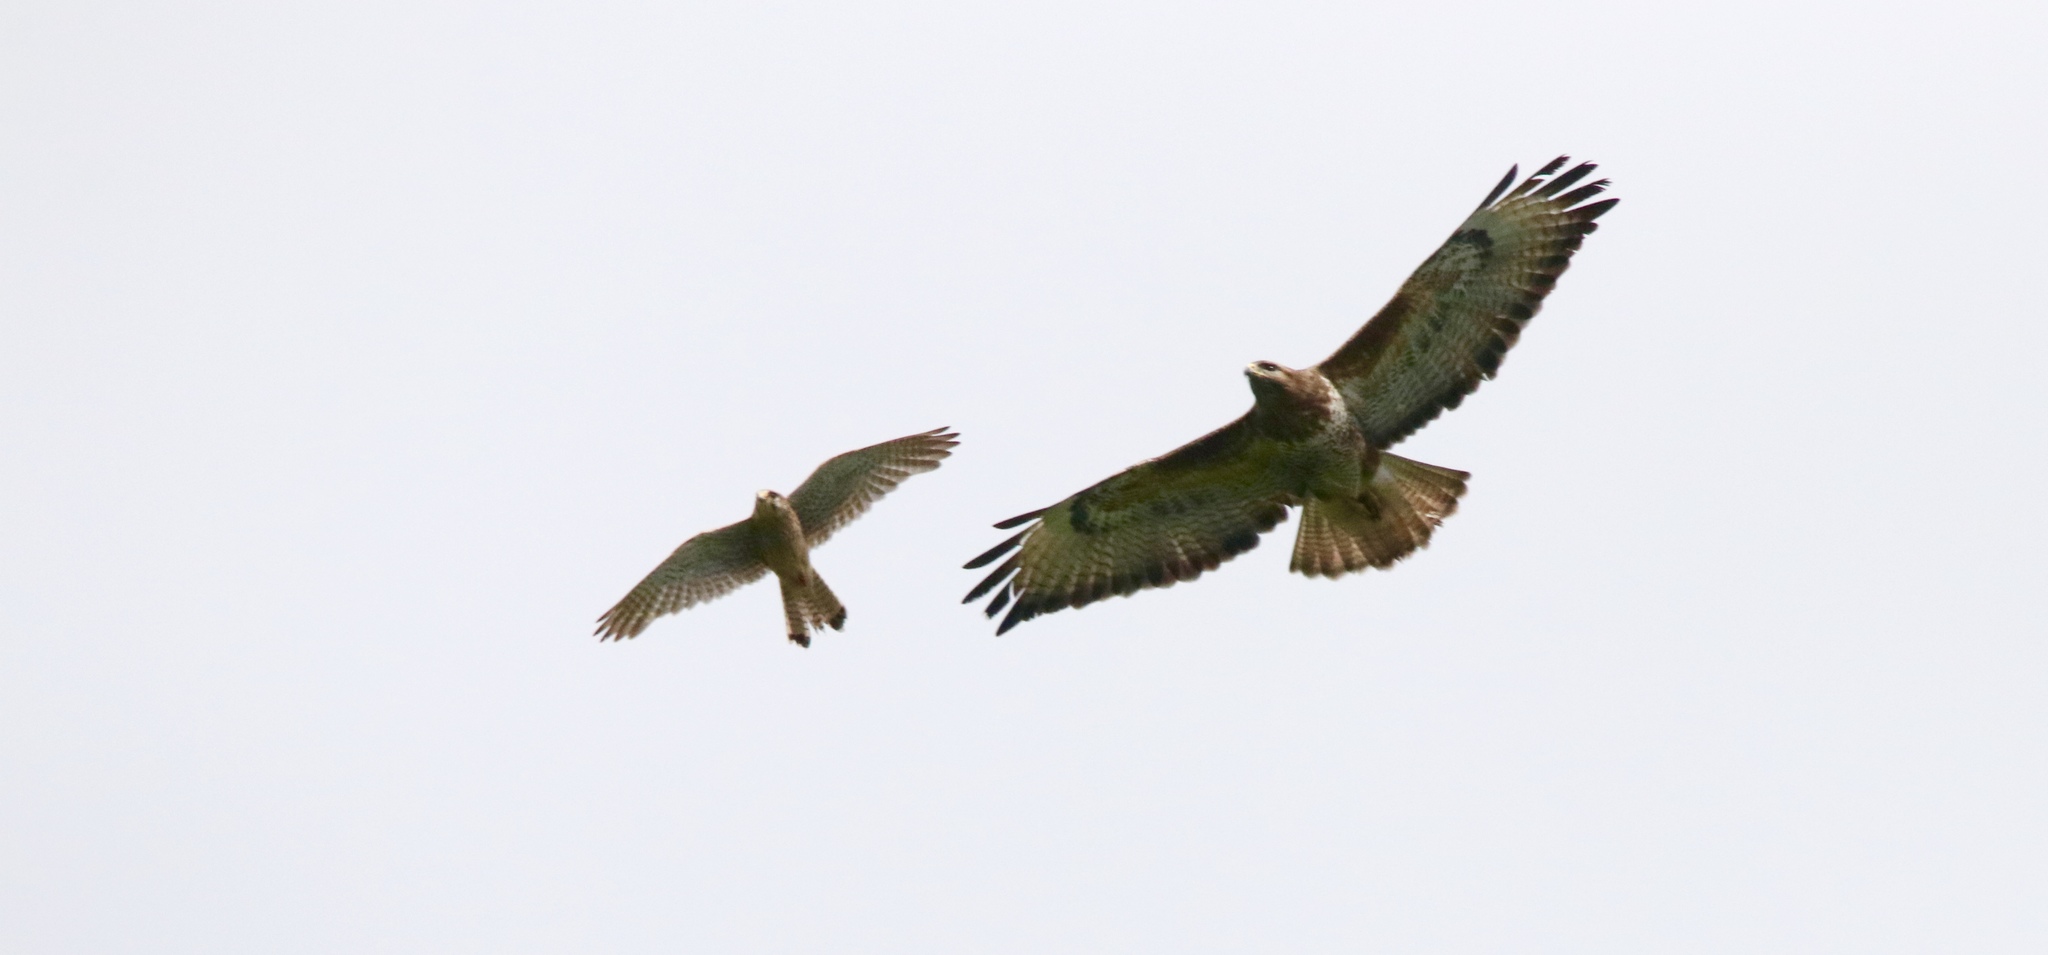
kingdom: Animalia
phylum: Chordata
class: Aves
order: Falconiformes
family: Falconidae
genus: Falco
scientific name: Falco tinnunculus
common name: Common kestrel
